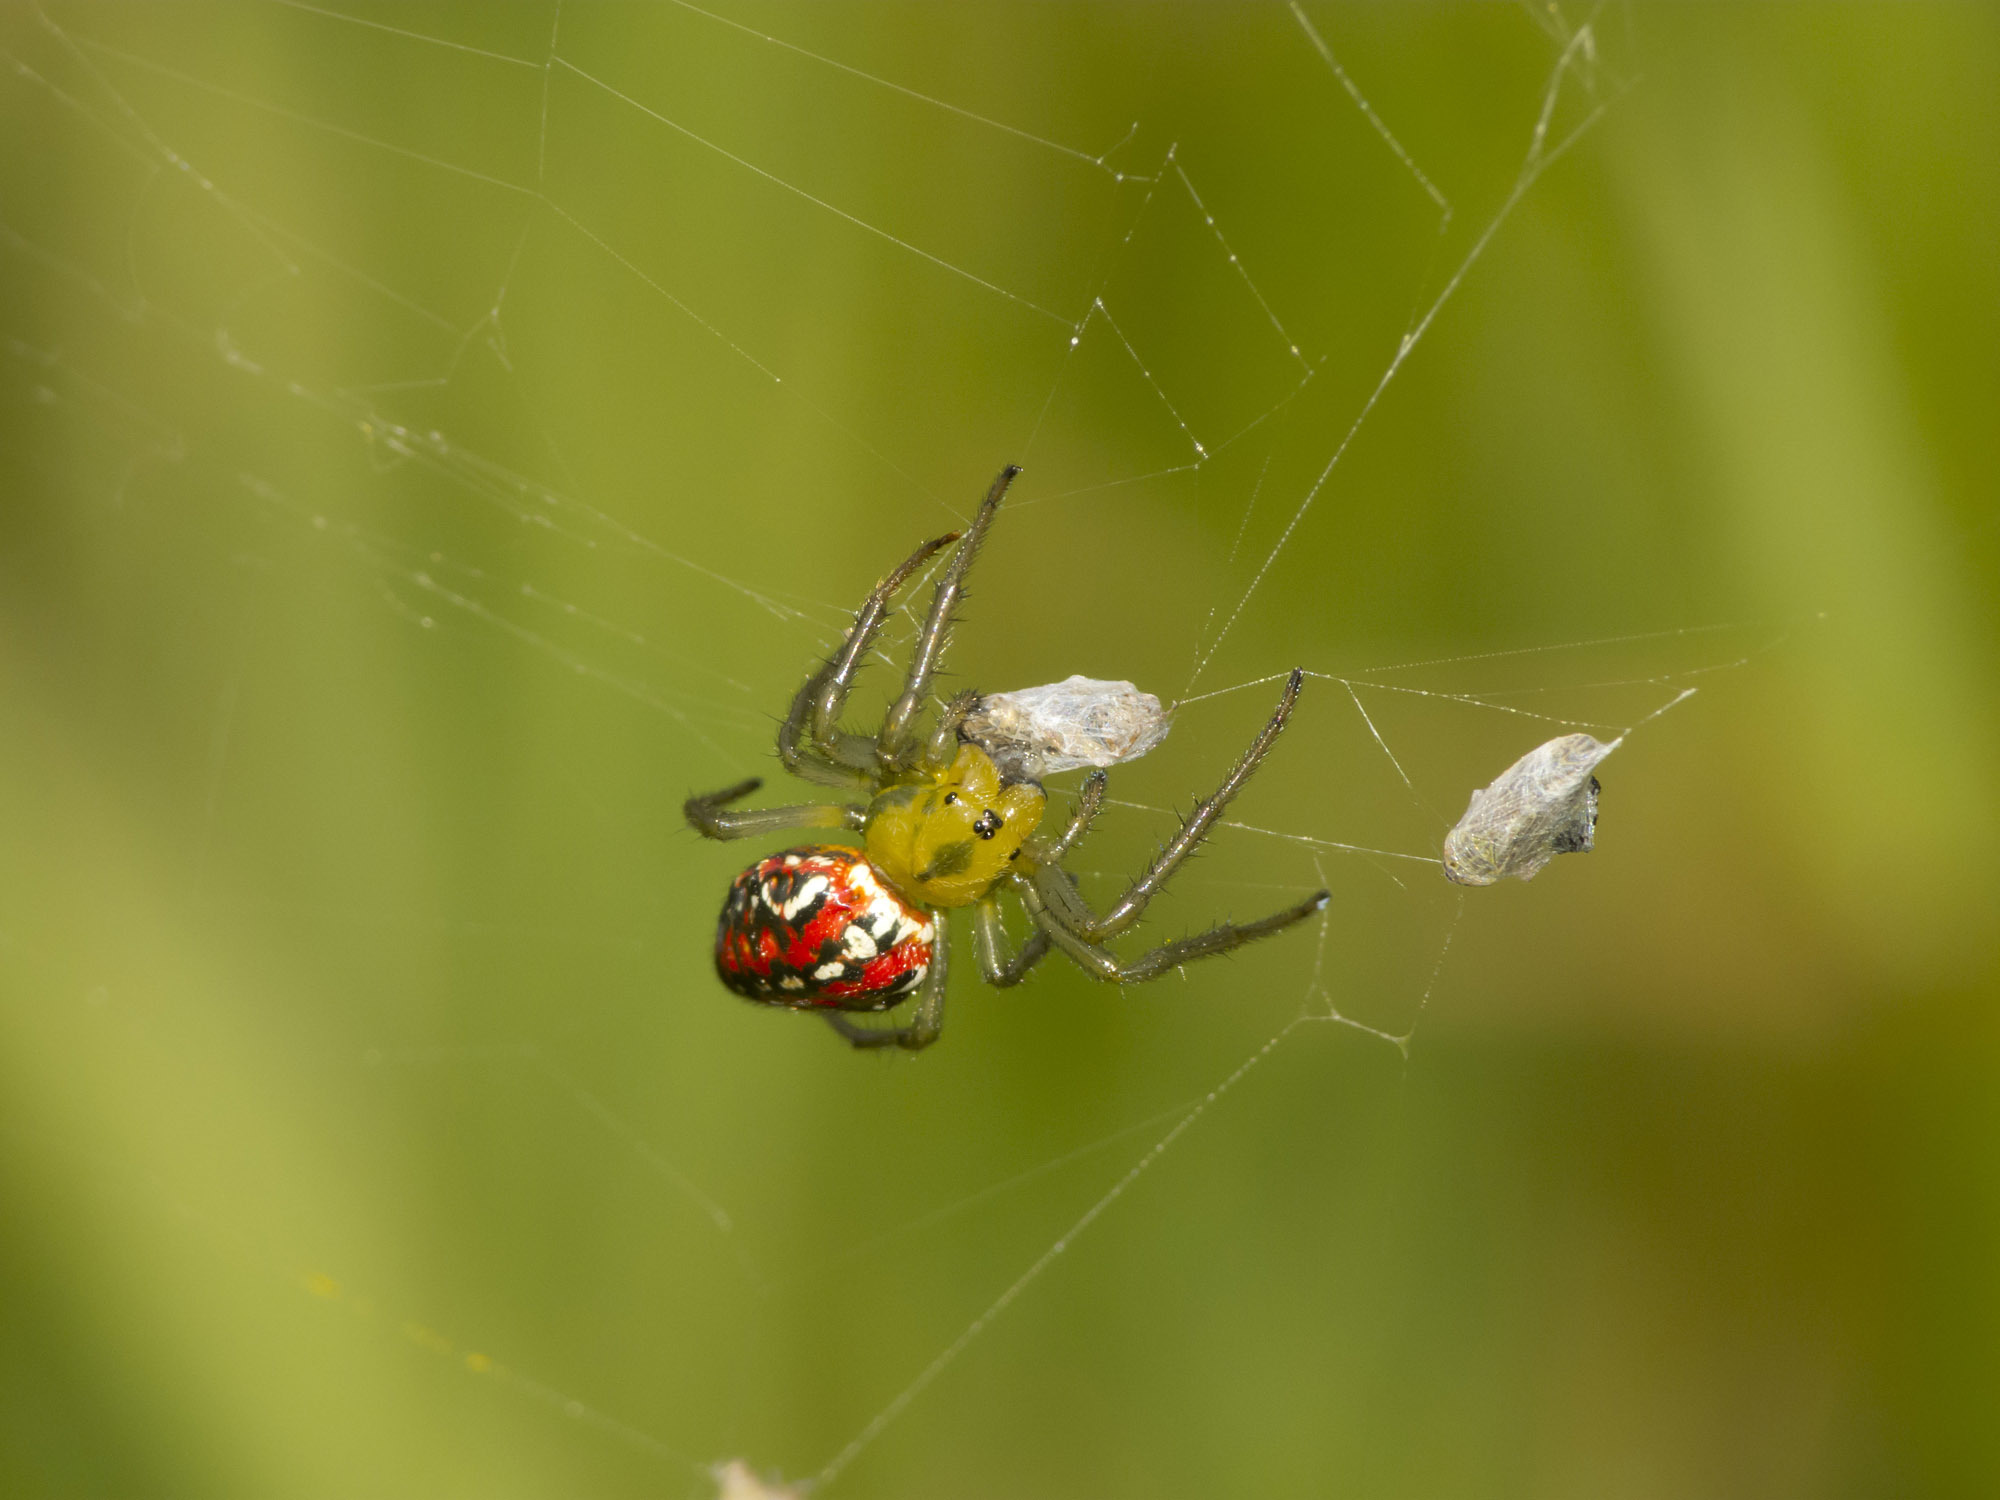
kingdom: Animalia
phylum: Arthropoda
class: Arachnida
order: Araneae
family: Araneidae
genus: Alpaida
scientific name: Alpaida variabilis
